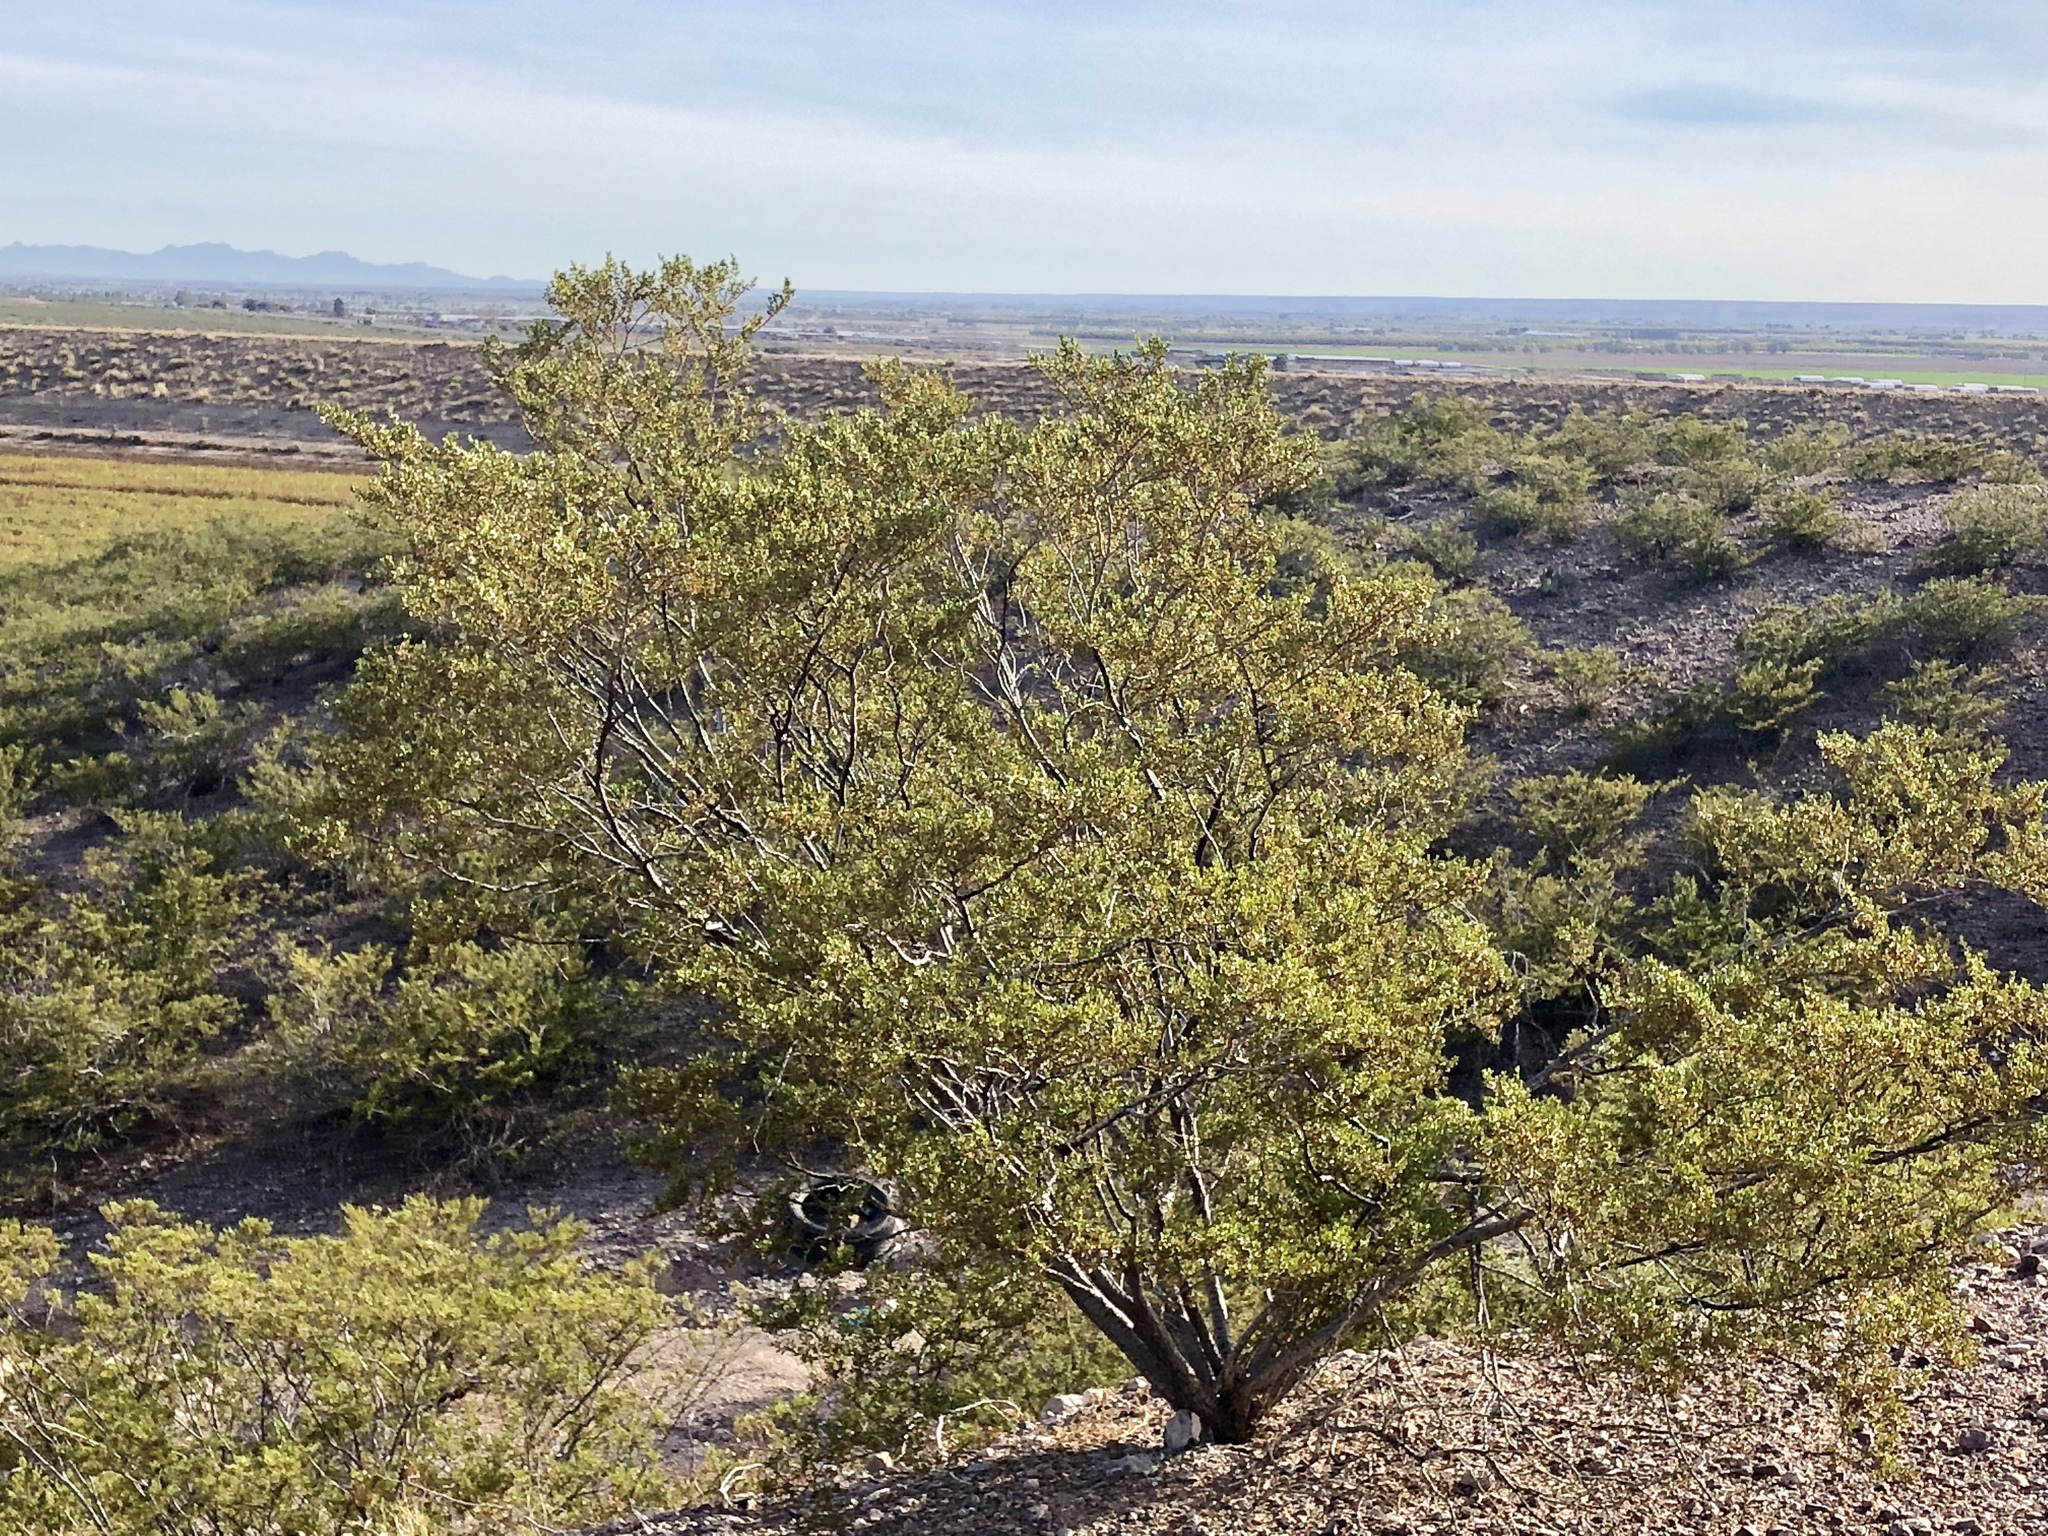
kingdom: Plantae
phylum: Tracheophyta
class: Magnoliopsida
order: Zygophyllales
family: Zygophyllaceae
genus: Larrea
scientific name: Larrea tridentata
